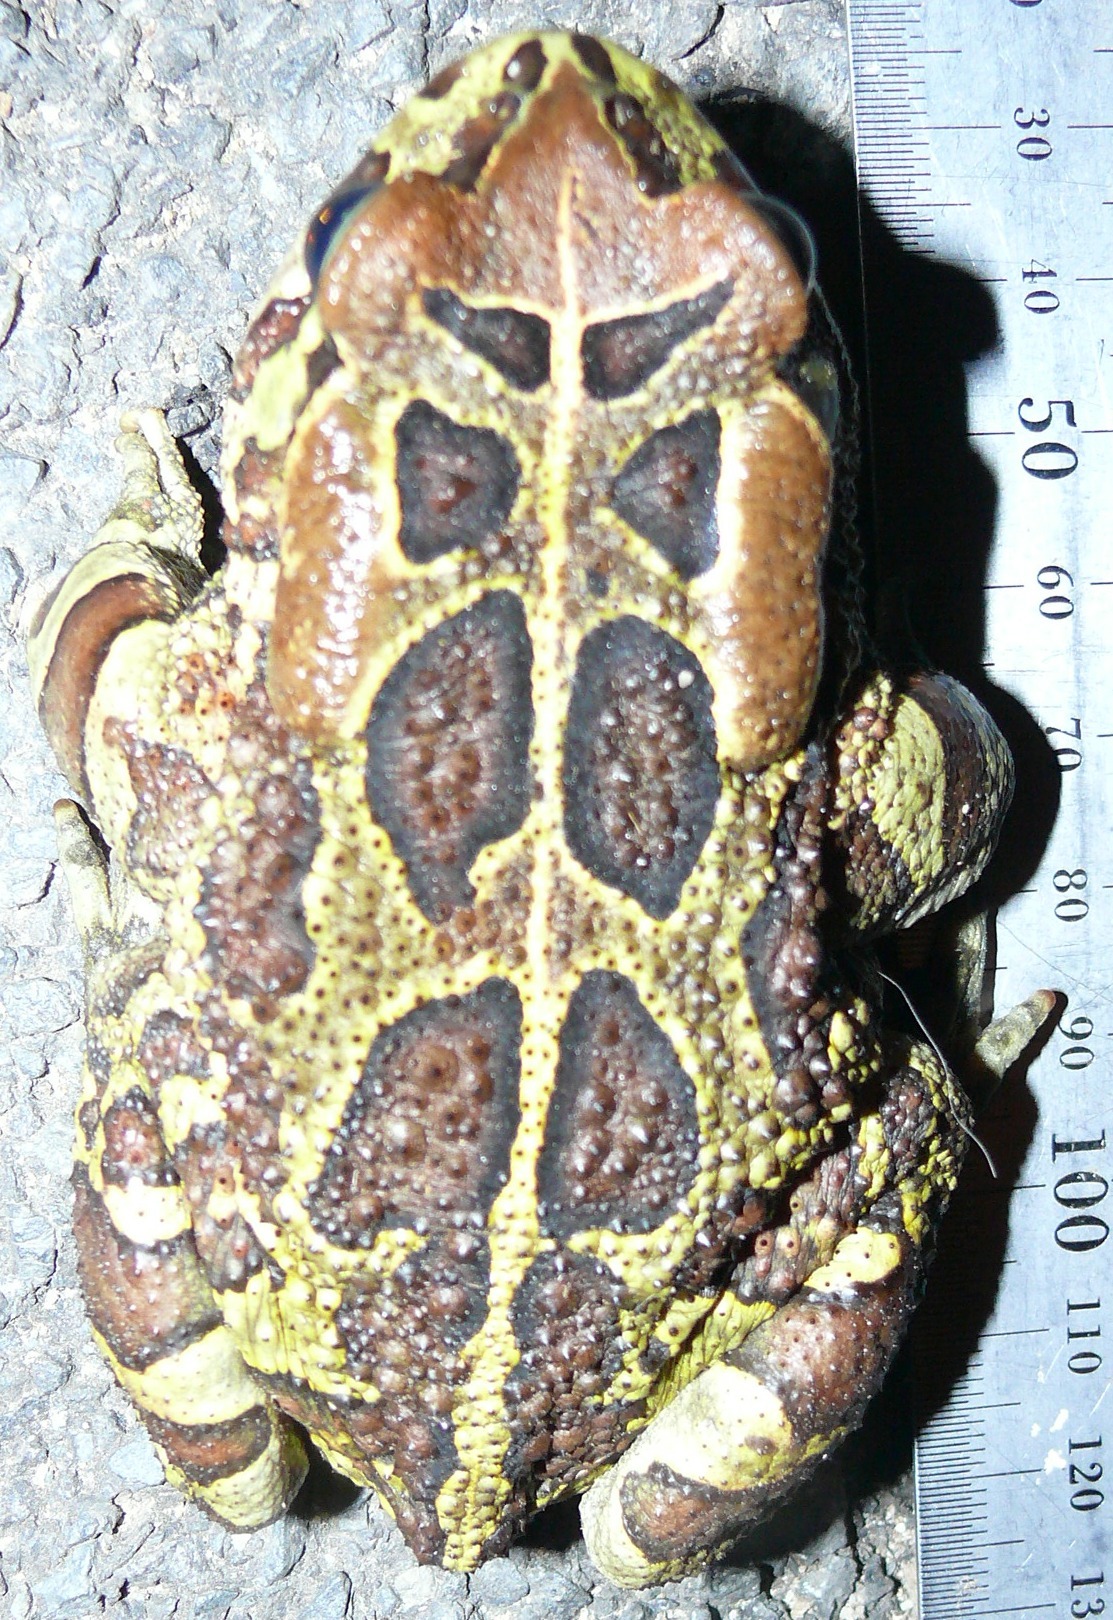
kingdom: Animalia
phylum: Chordata
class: Amphibia
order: Anura
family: Bufonidae
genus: Sclerophrys
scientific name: Sclerophrys pantherina
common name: Panther toad
